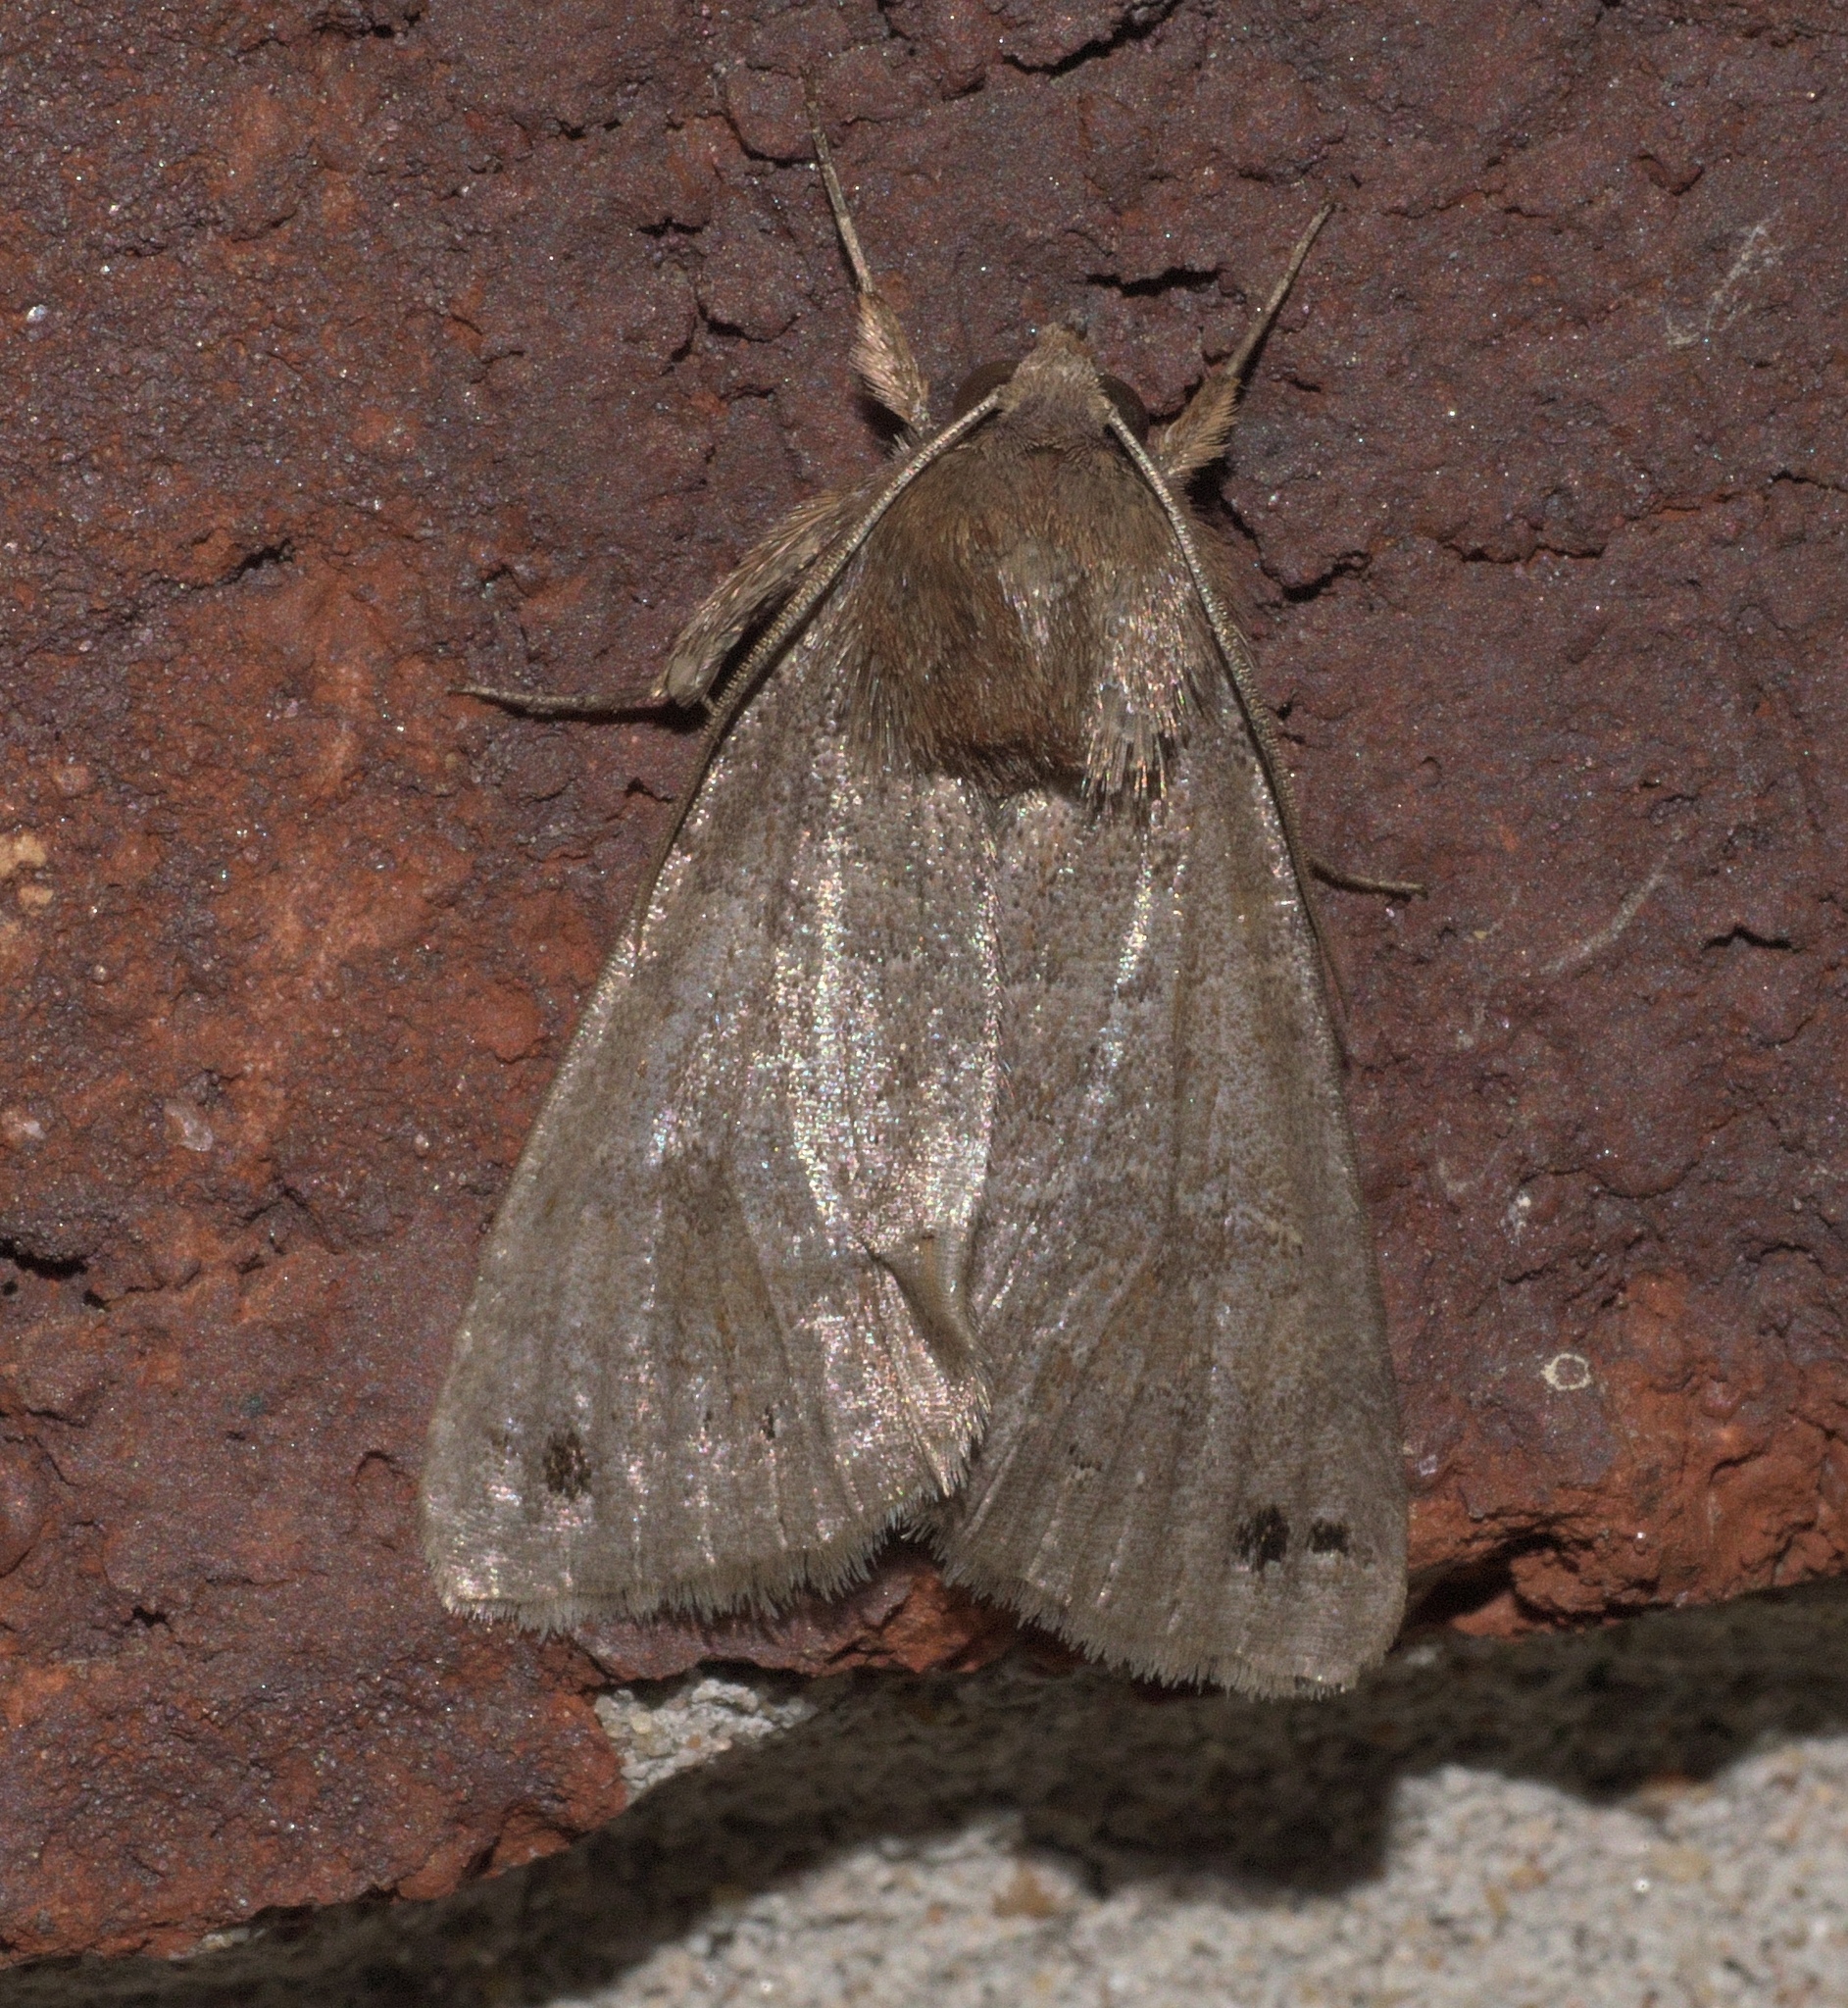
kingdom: Animalia
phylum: Arthropoda
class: Insecta
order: Lepidoptera
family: Erebidae
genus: Cissusa
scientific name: Cissusa spadix
